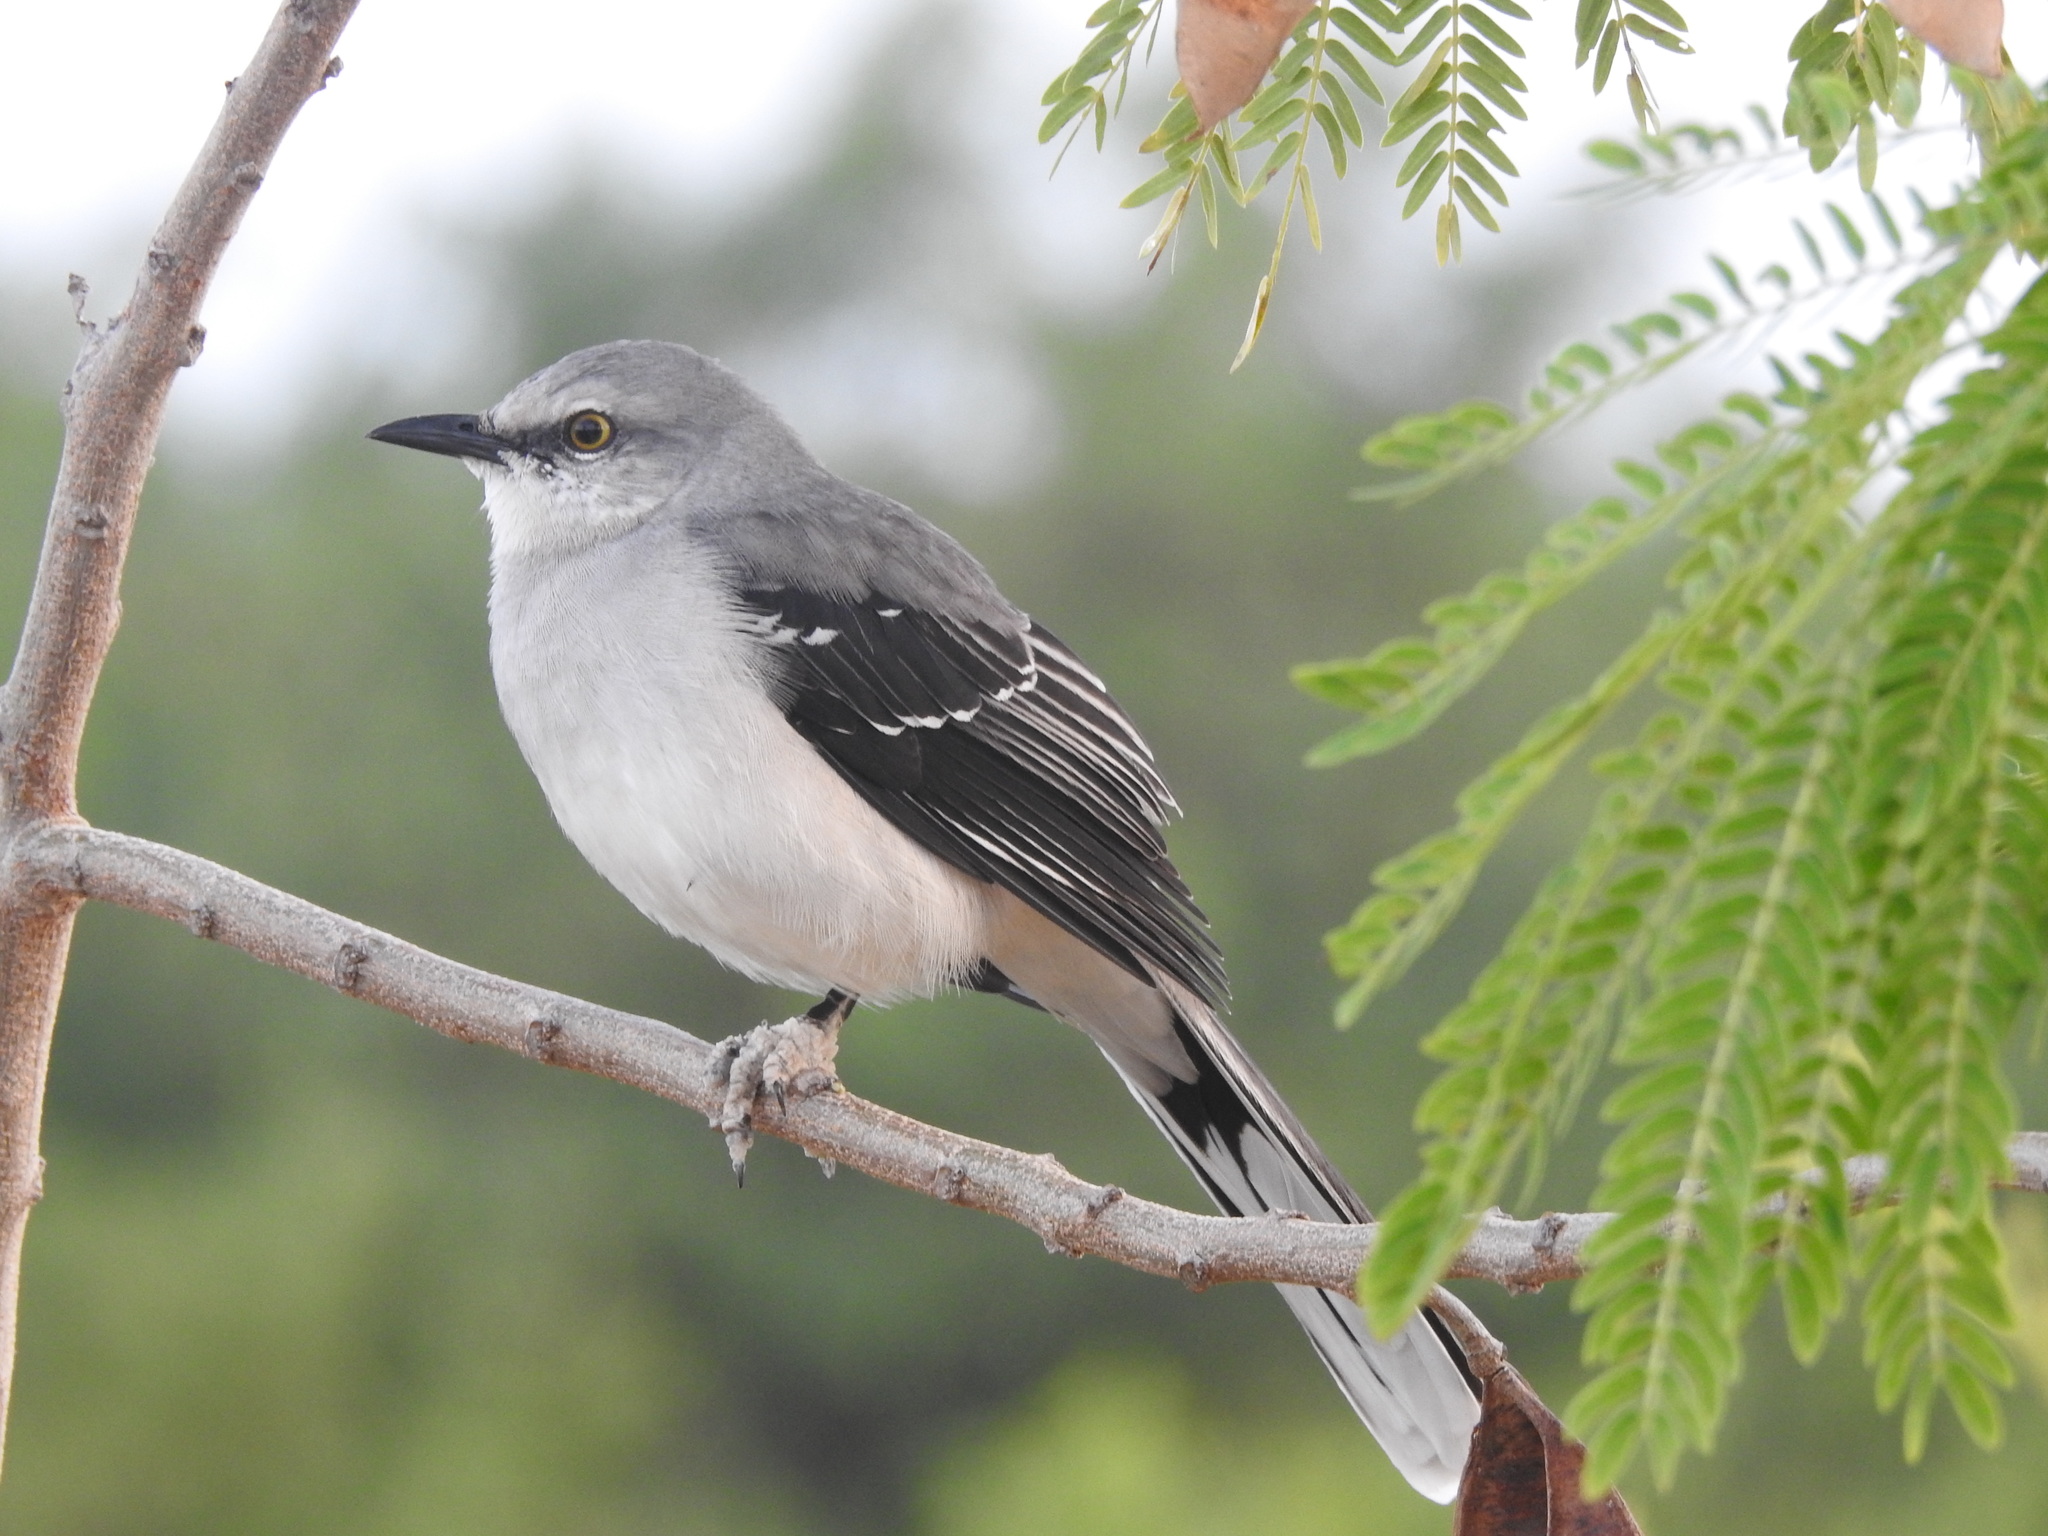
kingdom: Animalia
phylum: Chordata
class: Aves
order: Passeriformes
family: Mimidae
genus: Mimus
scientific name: Mimus gilvus
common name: Tropical mockingbird
